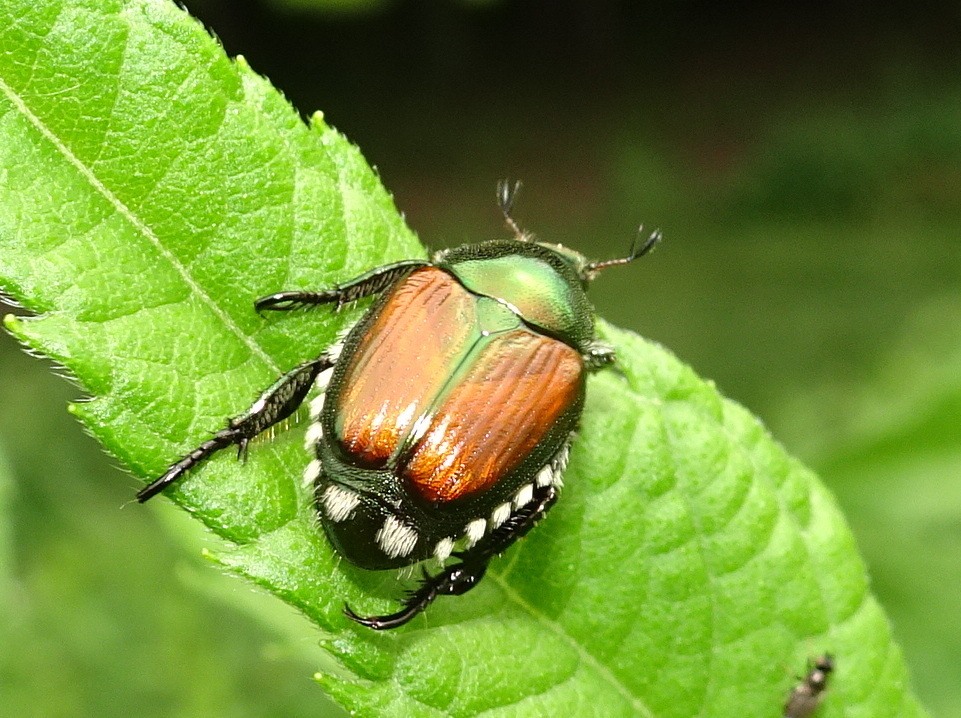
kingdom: Animalia
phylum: Arthropoda
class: Insecta
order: Coleoptera
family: Scarabaeidae
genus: Popillia
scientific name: Popillia japonica
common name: Japanese beetle
